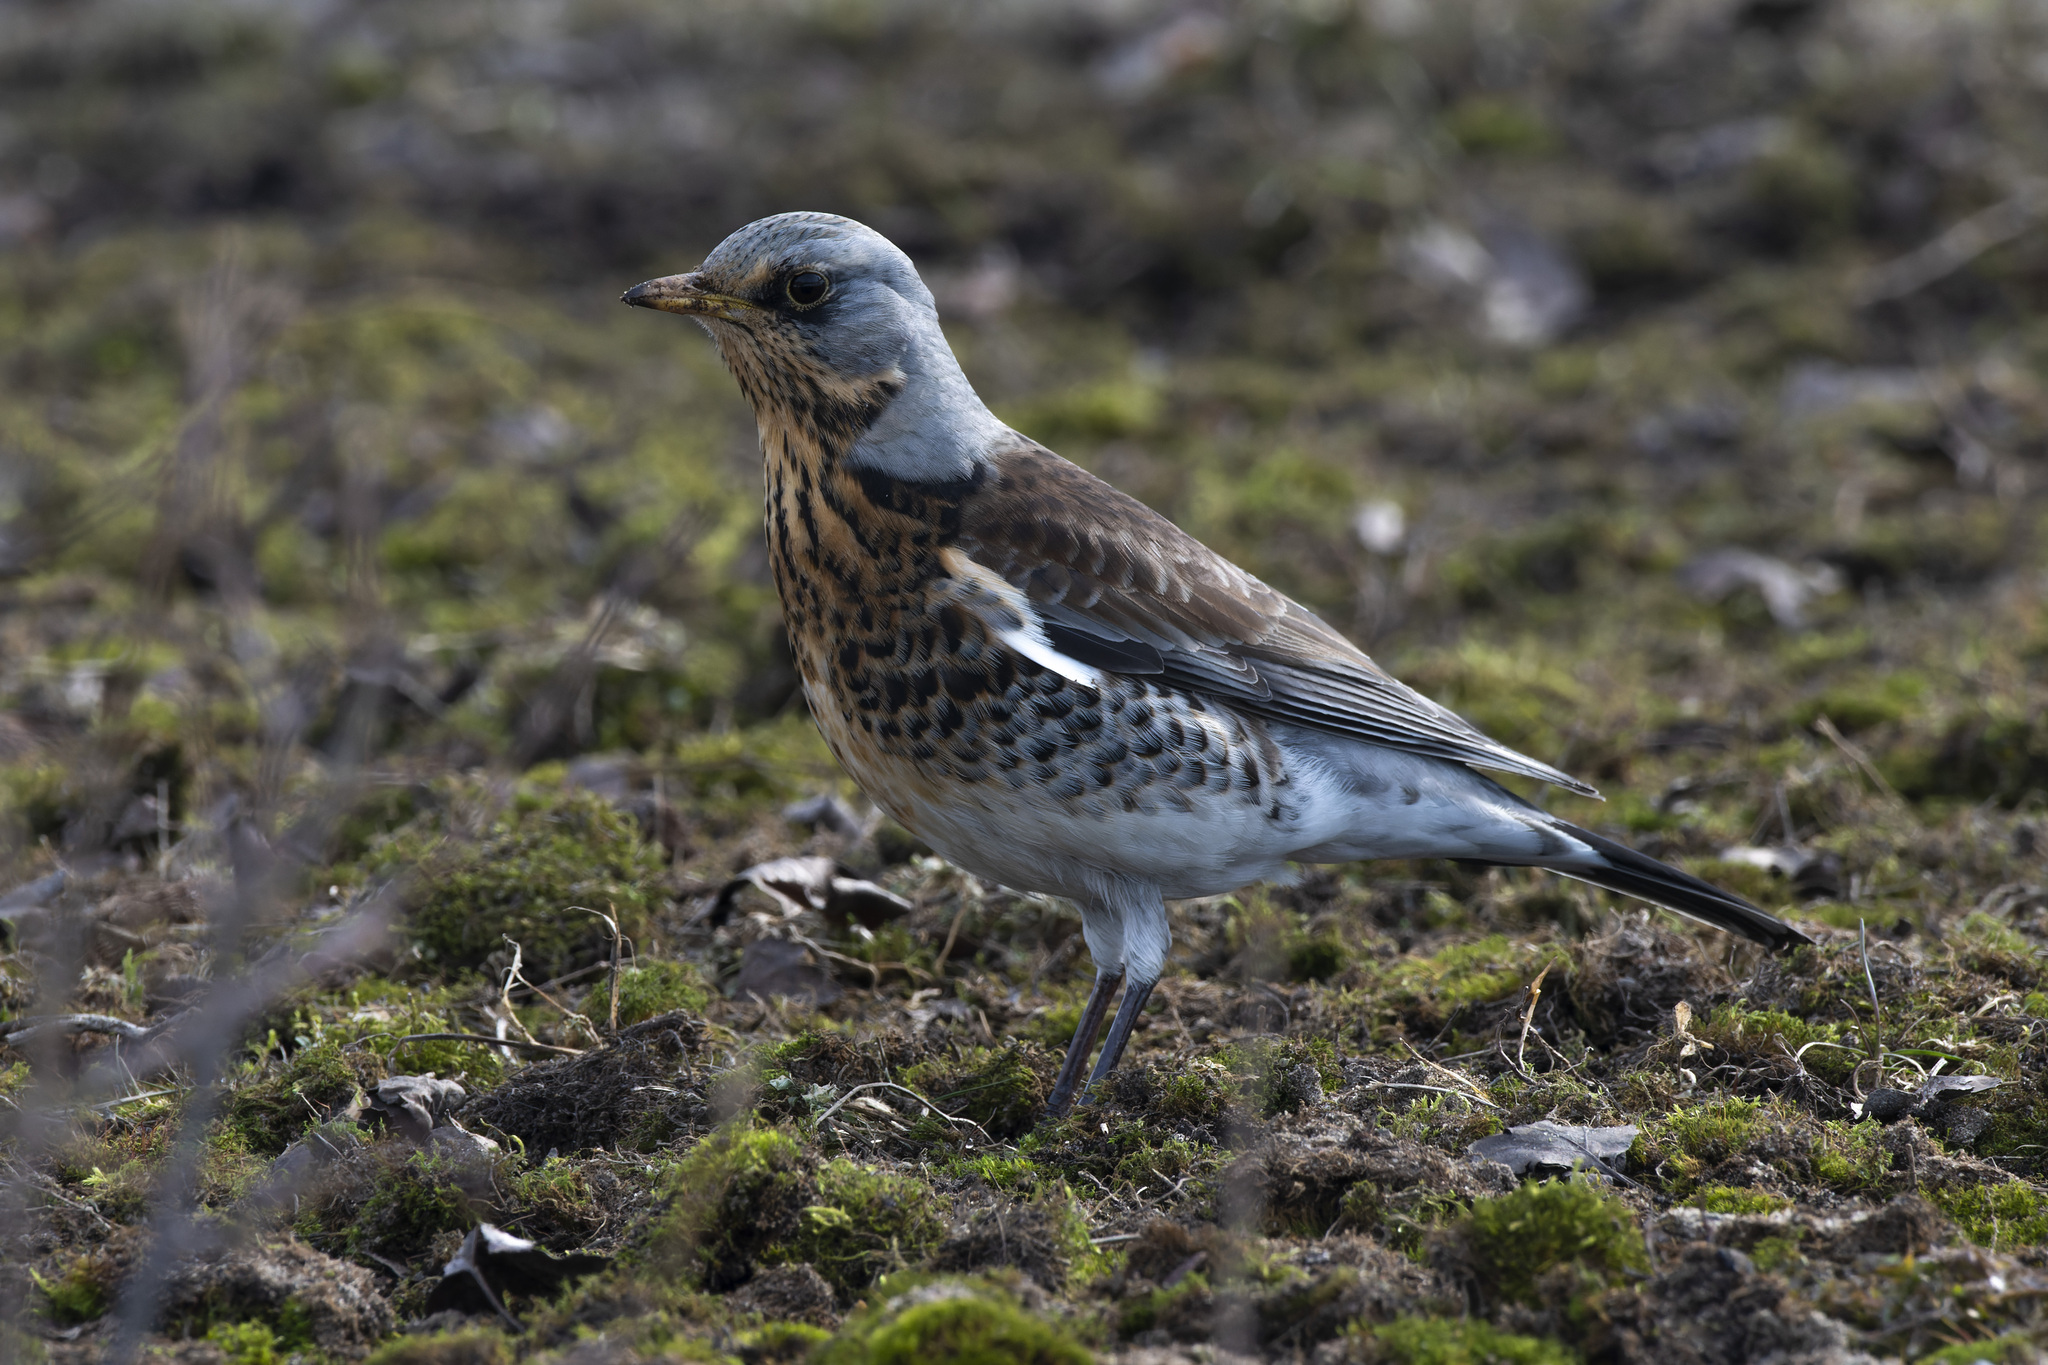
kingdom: Animalia
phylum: Chordata
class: Aves
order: Passeriformes
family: Turdidae
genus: Turdus
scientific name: Turdus pilaris
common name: Fieldfare
